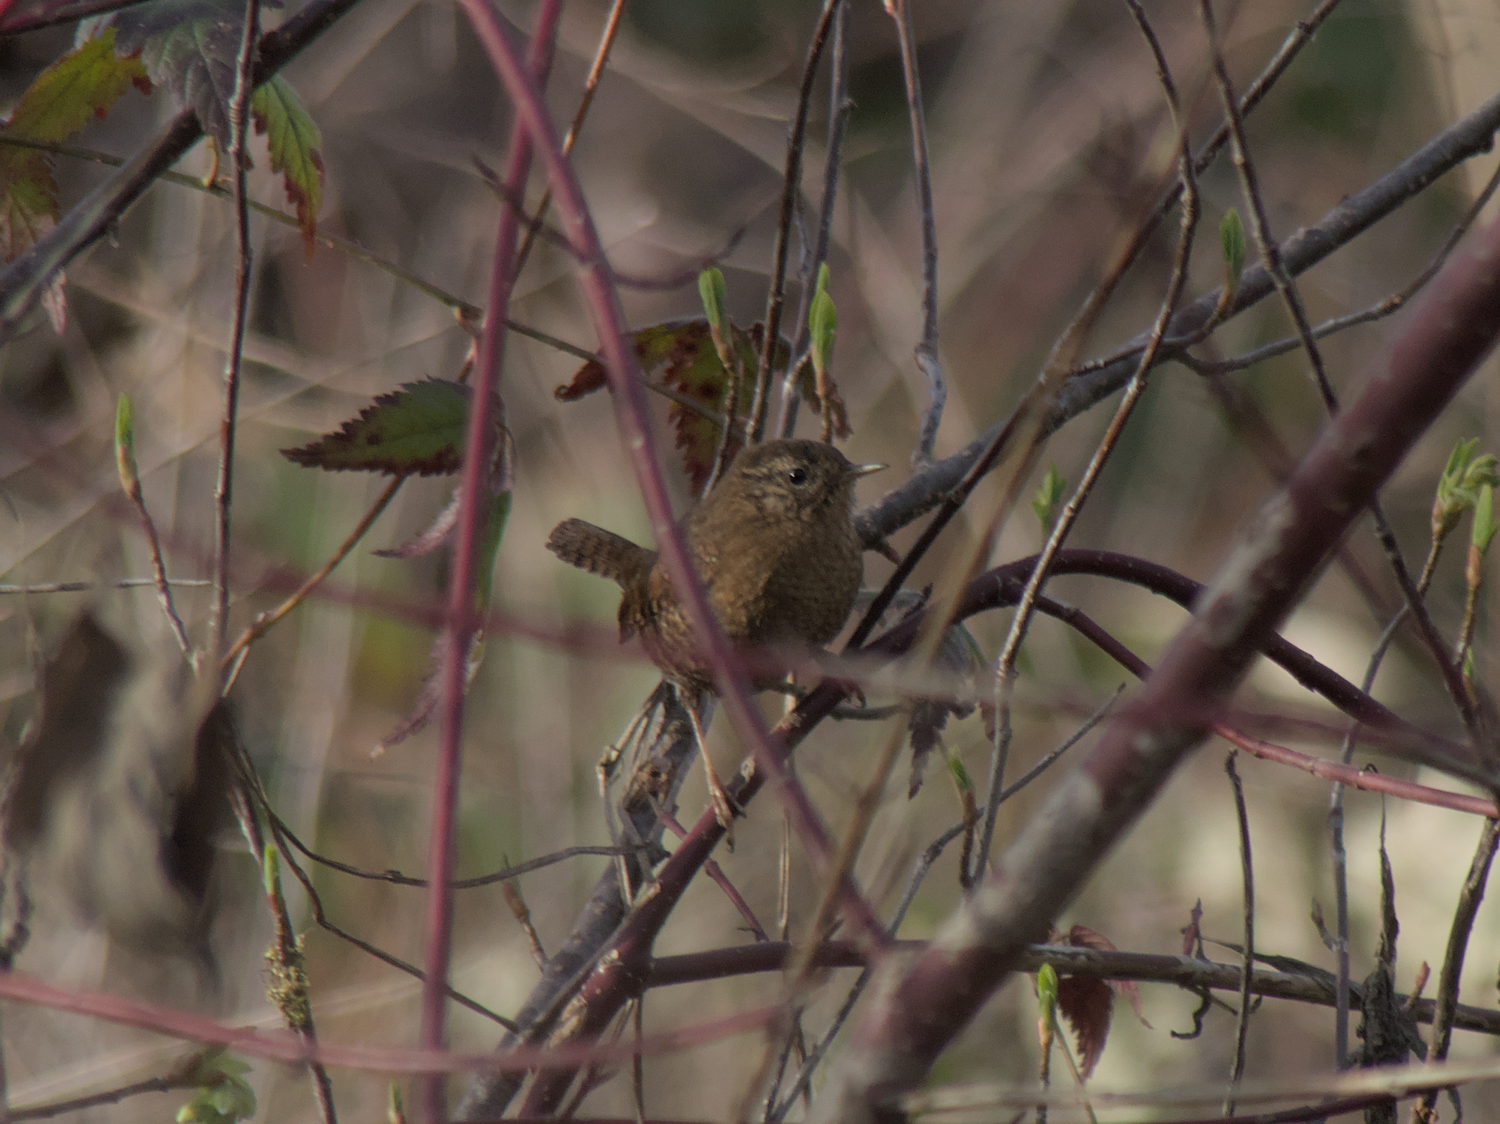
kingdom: Animalia
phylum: Chordata
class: Aves
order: Passeriformes
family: Troglodytidae
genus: Troglodytes
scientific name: Troglodytes pacificus
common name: Pacific wren
